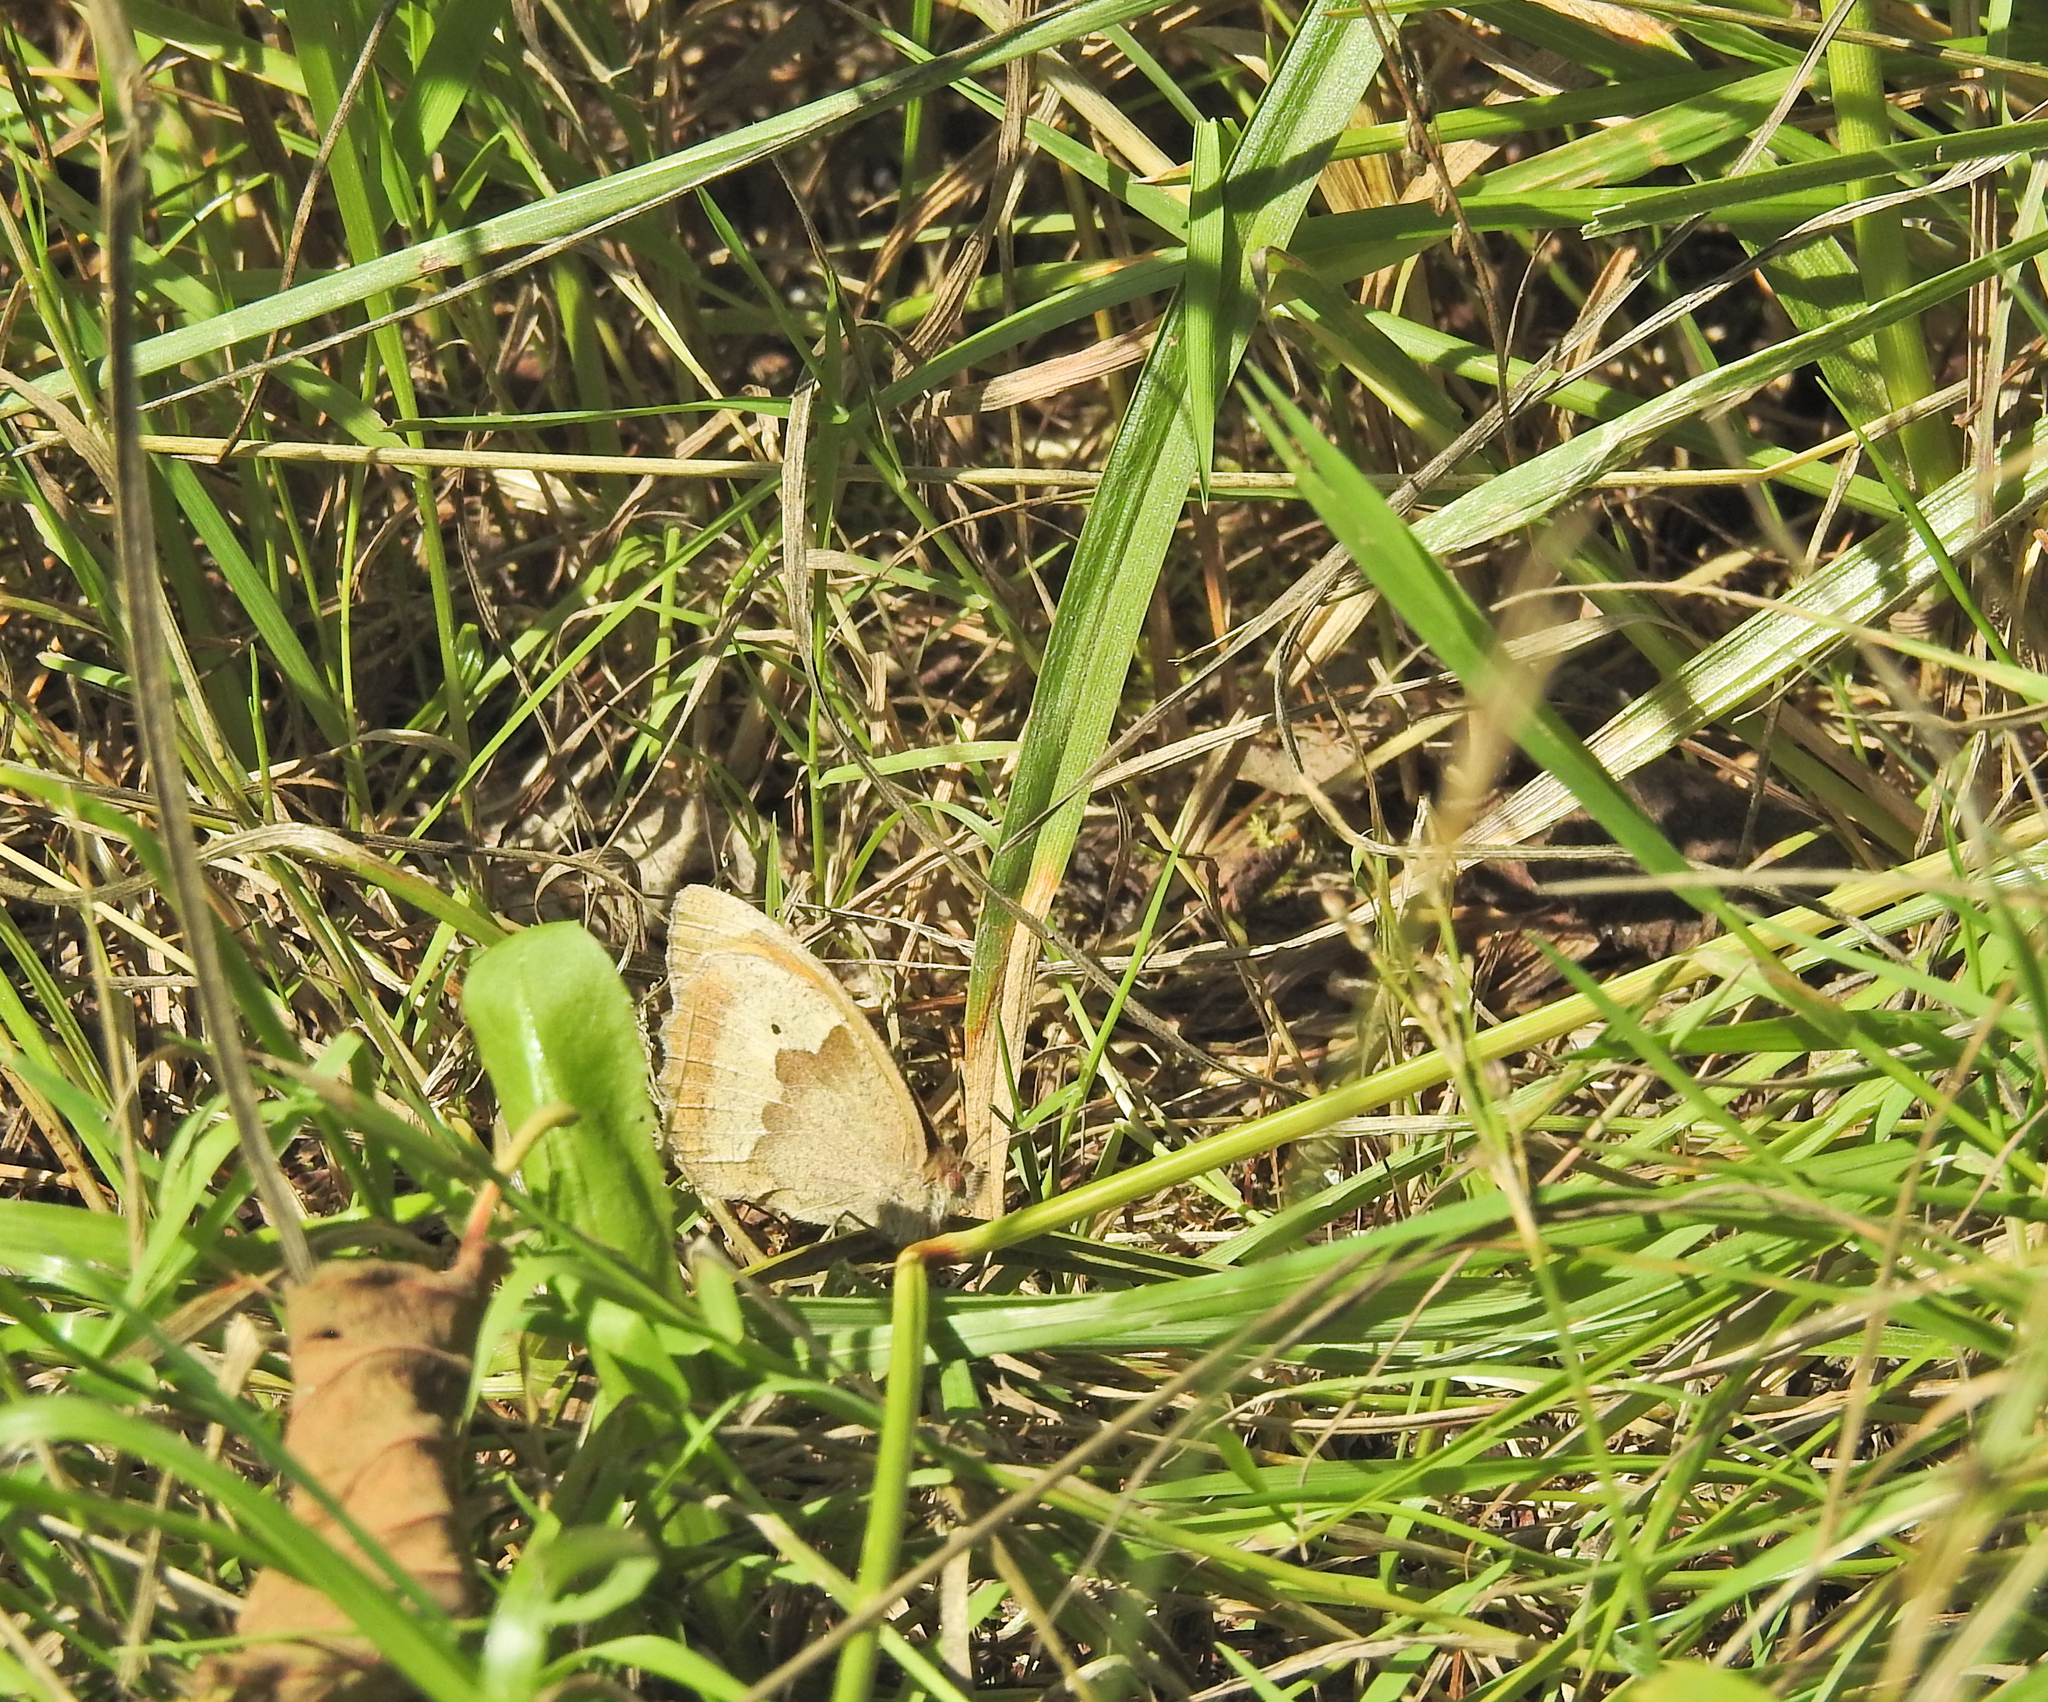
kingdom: Animalia
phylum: Arthropoda
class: Insecta
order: Lepidoptera
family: Nymphalidae
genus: Maniola
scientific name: Maniola jurtina
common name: Meadow brown
